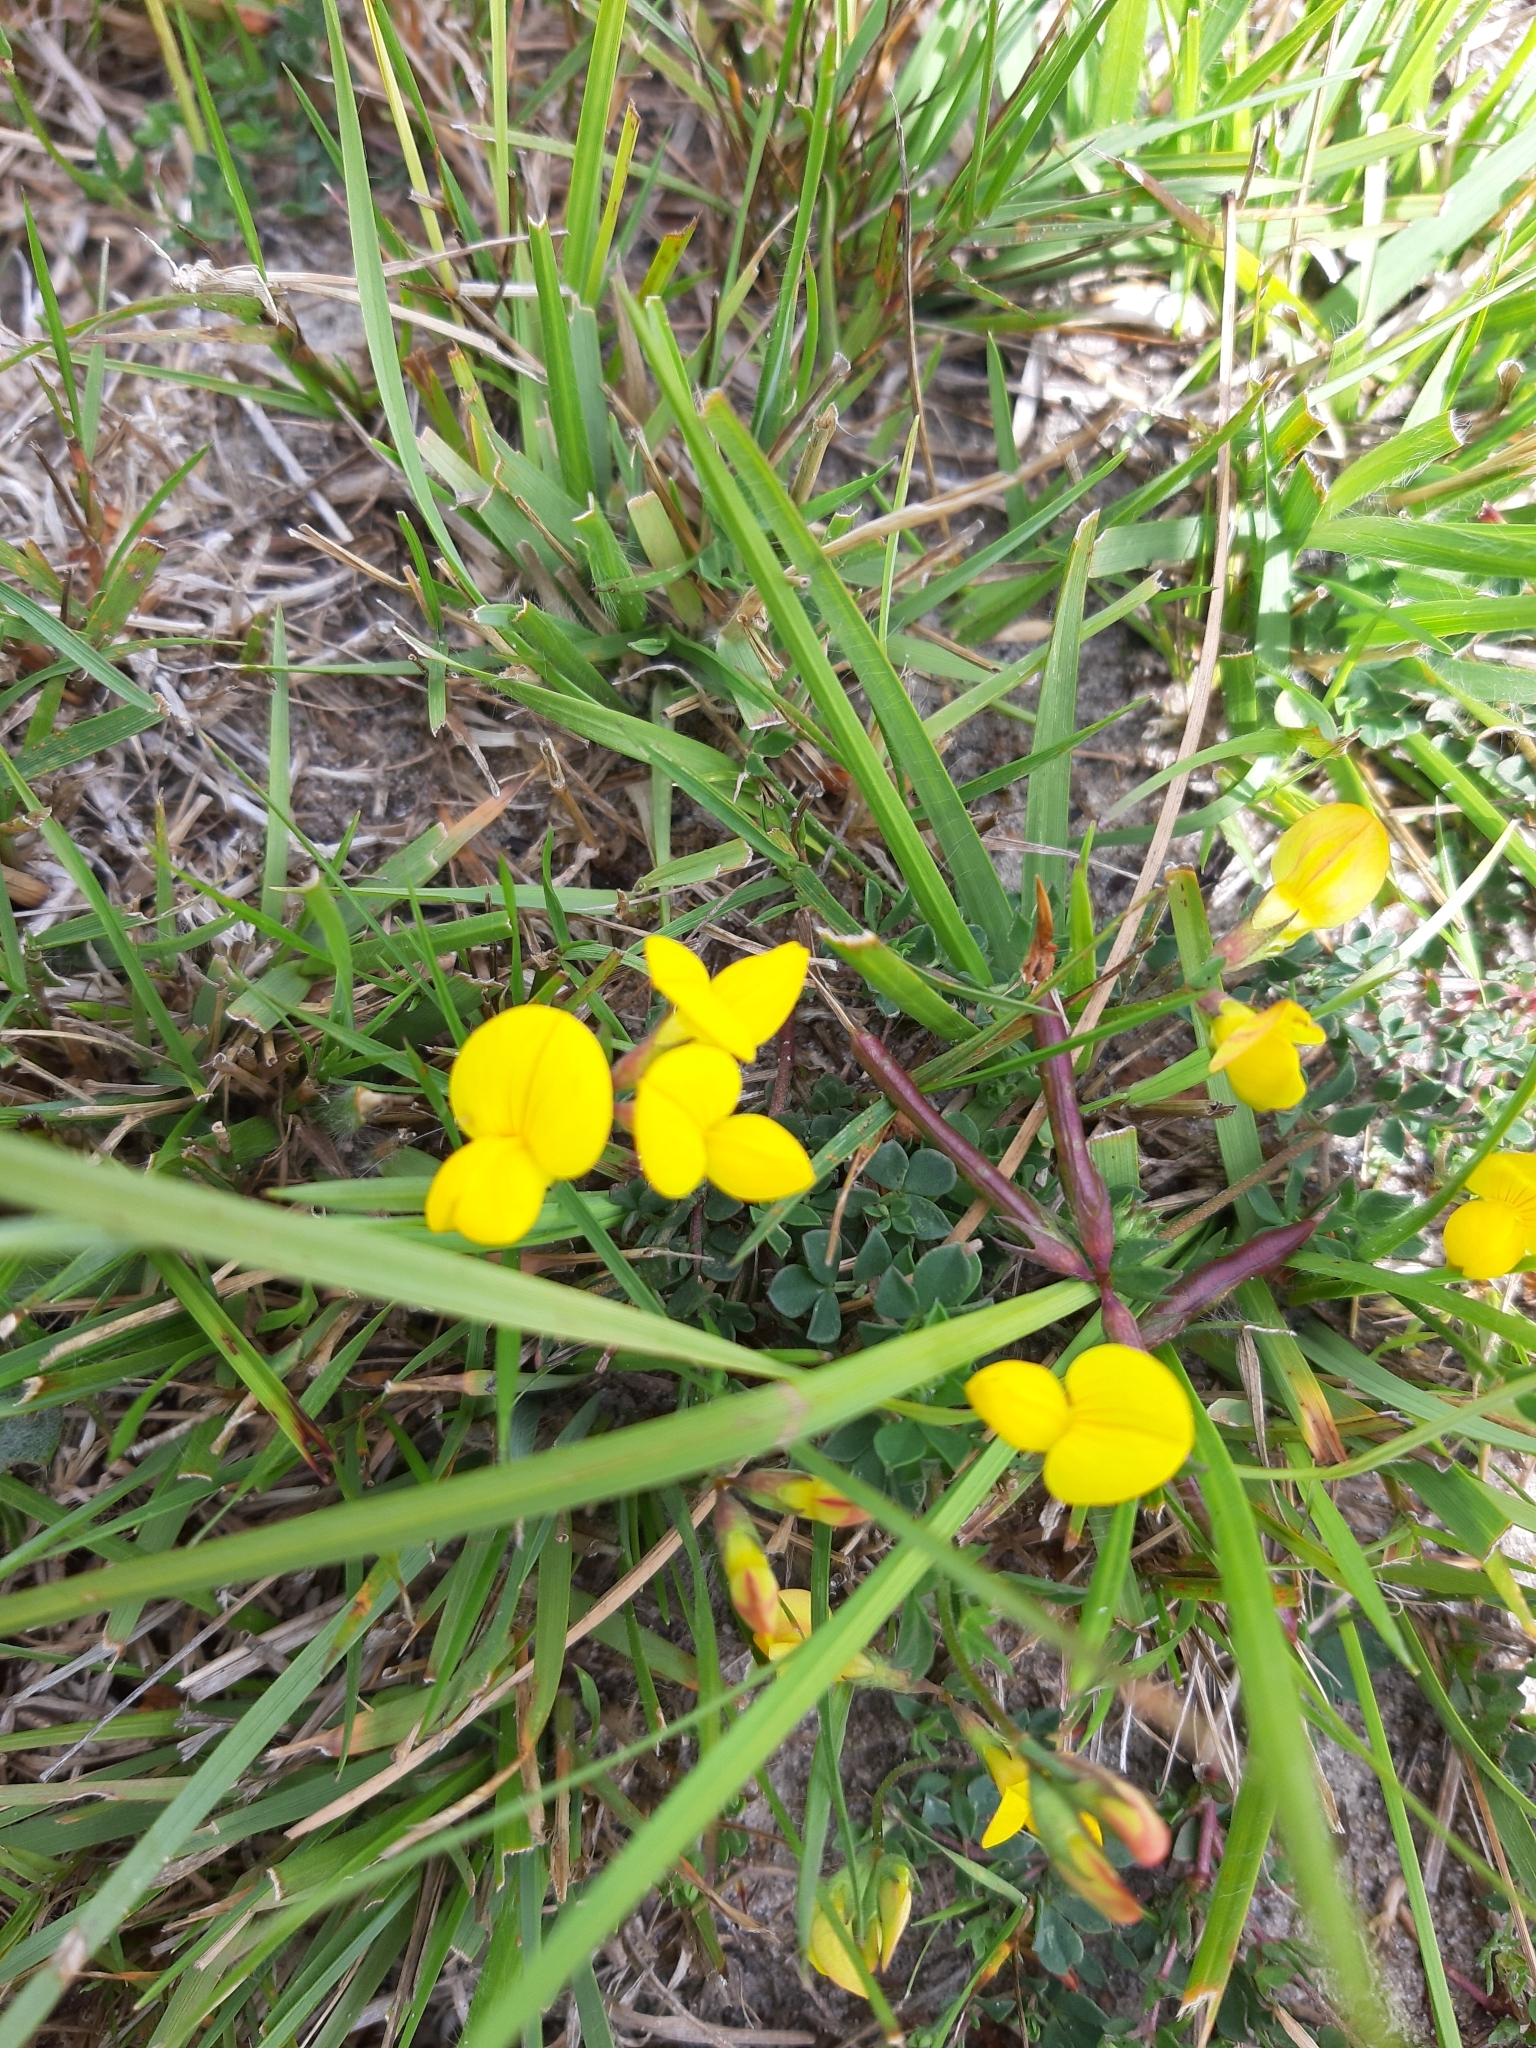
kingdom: Plantae
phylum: Tracheophyta
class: Magnoliopsida
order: Fabales
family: Fabaceae
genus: Lotus
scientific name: Lotus corniculatus
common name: Common bird's-foot-trefoil
